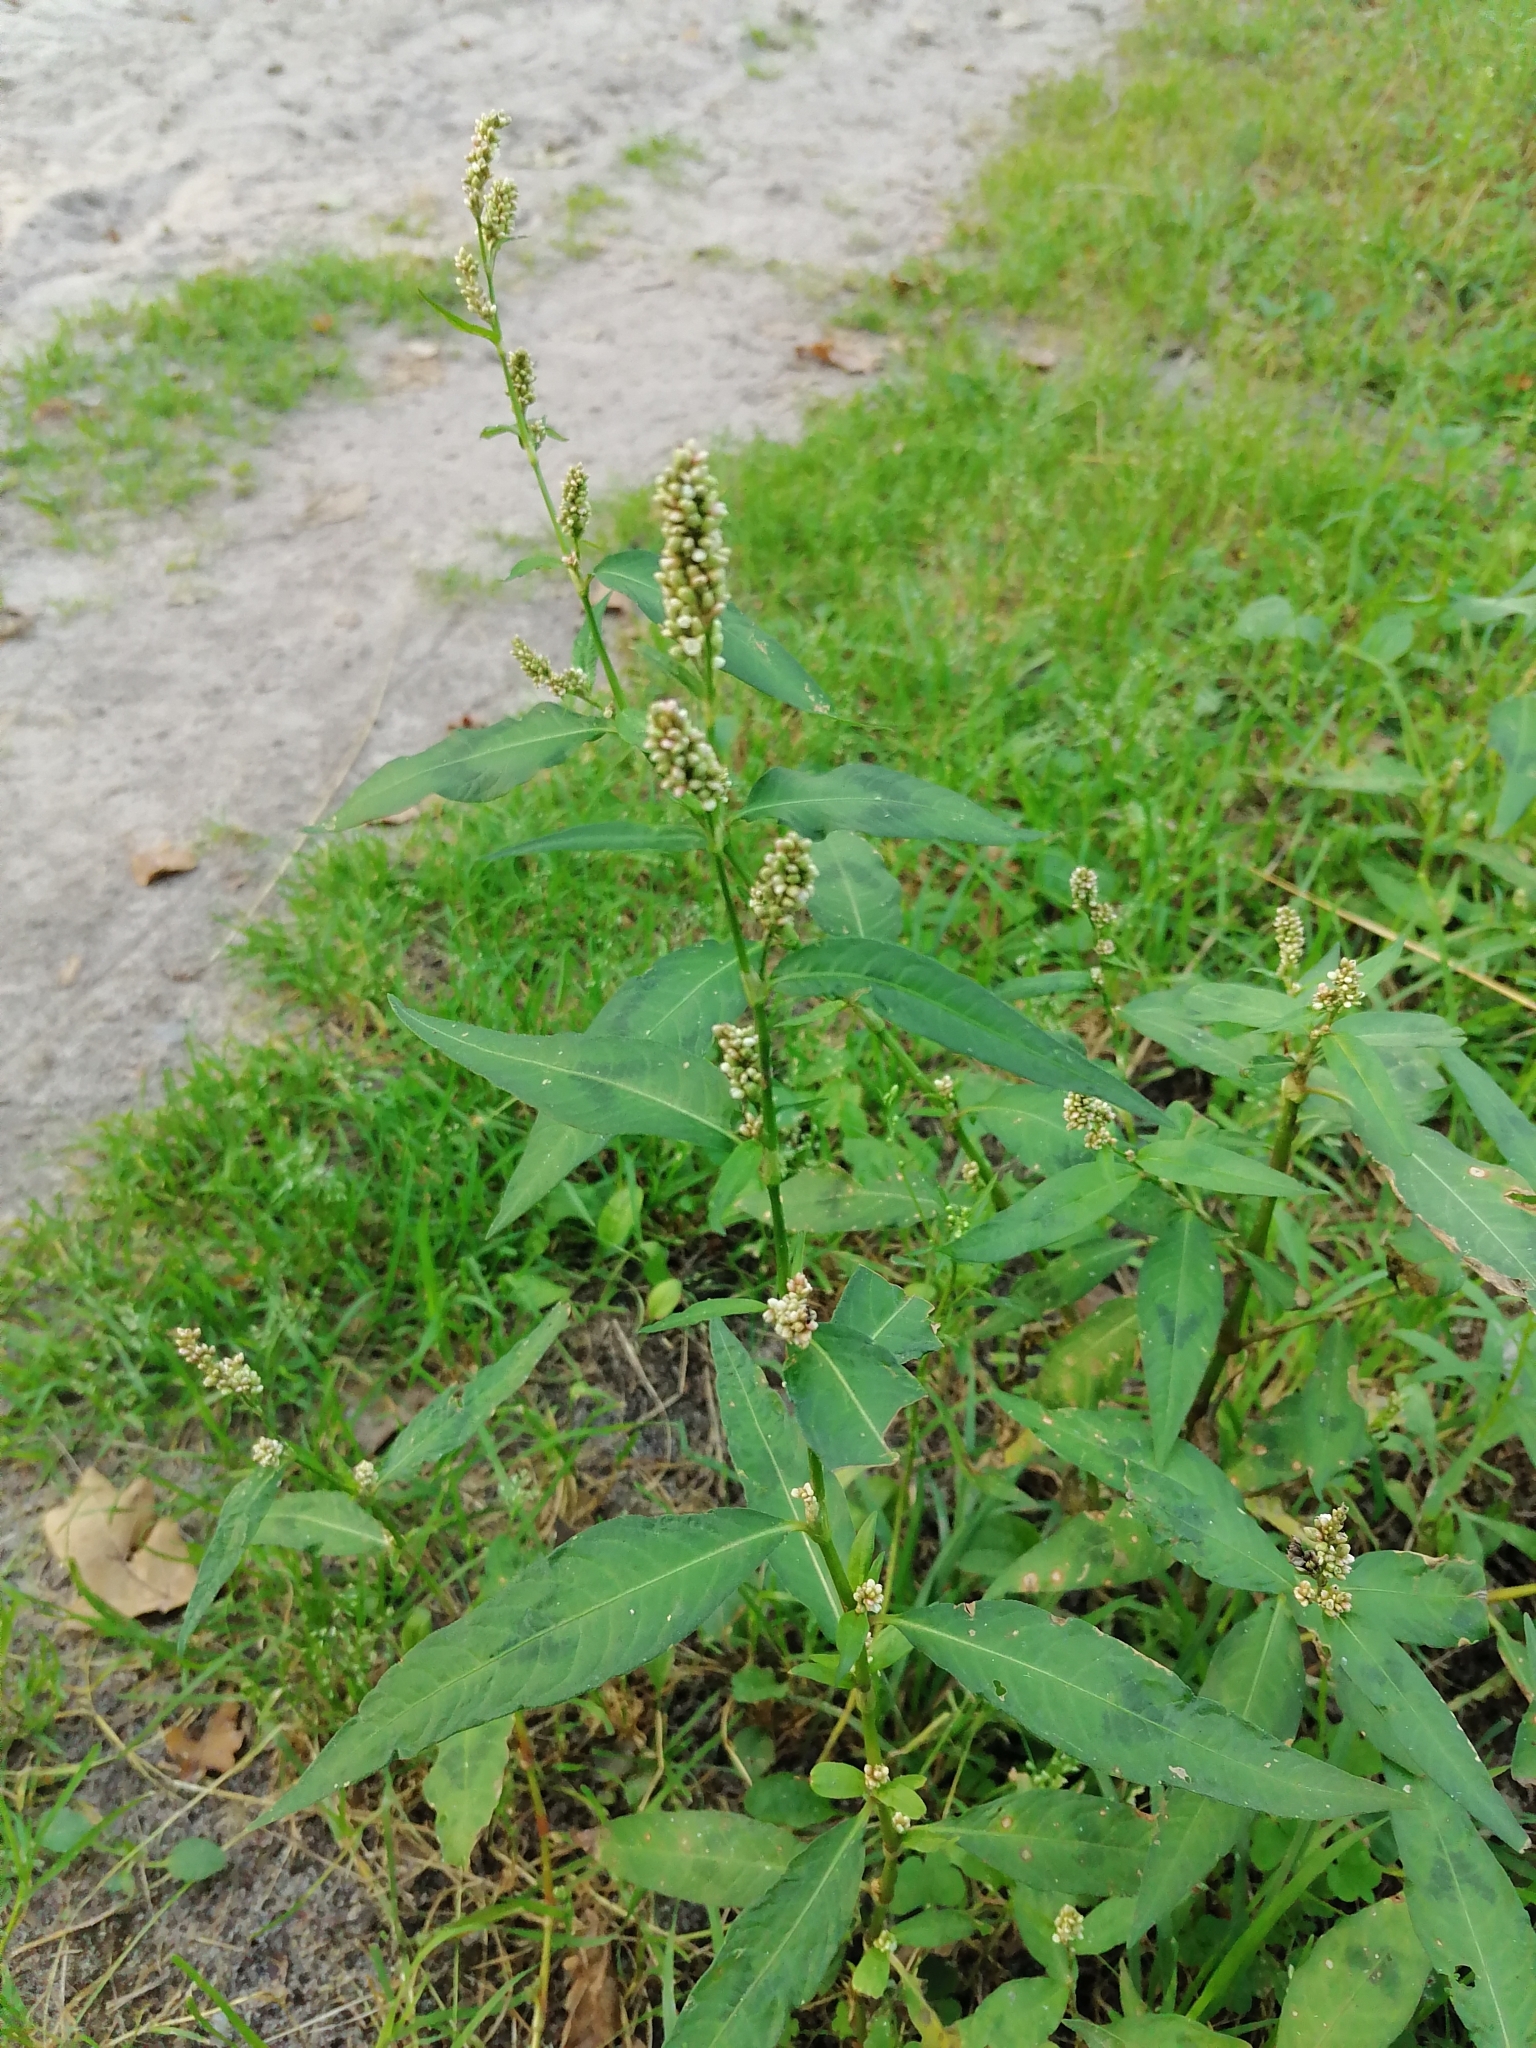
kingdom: Plantae
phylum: Tracheophyta
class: Magnoliopsida
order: Caryophyllales
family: Polygonaceae
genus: Persicaria
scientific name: Persicaria maculosa
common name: Redshank
